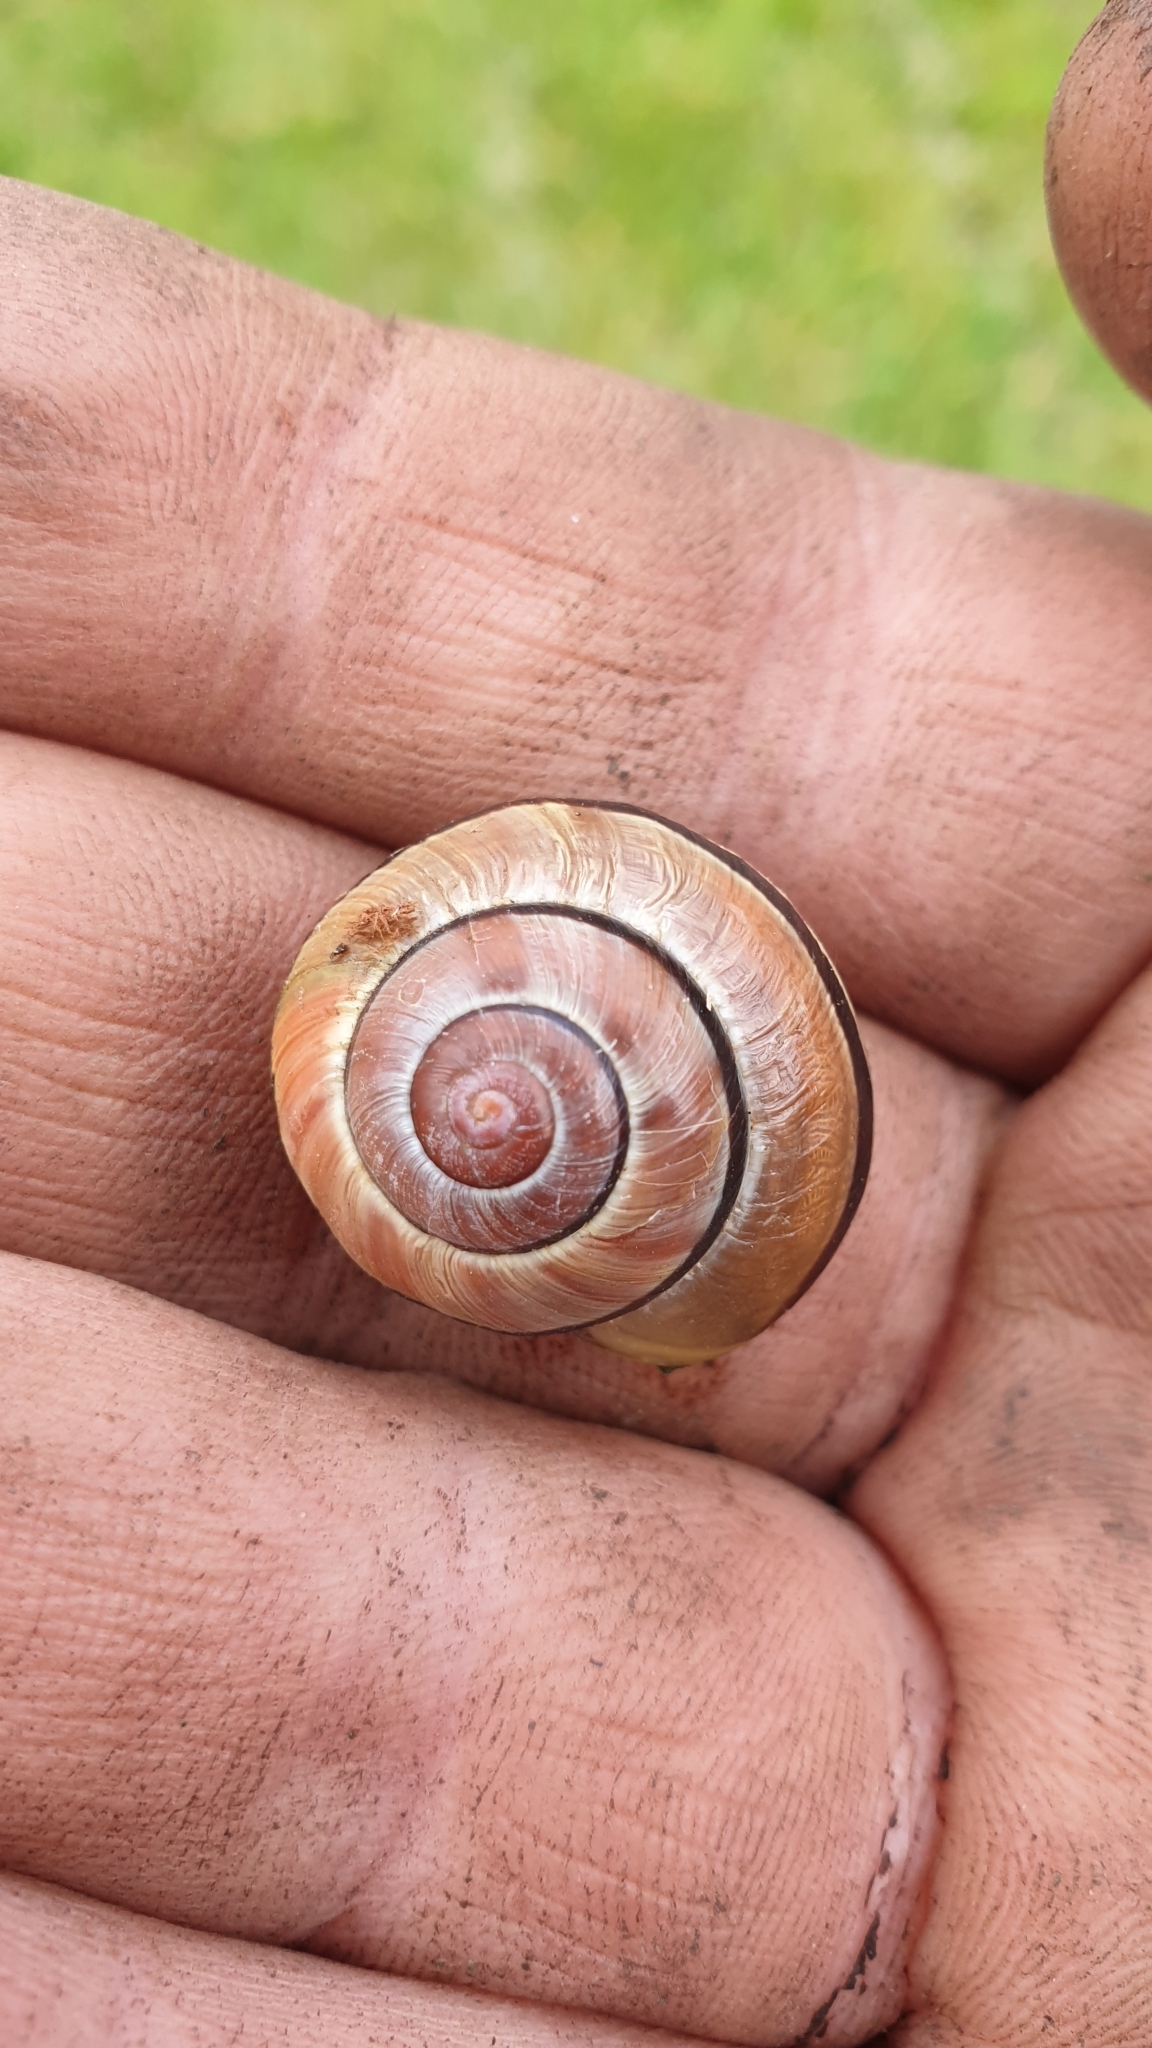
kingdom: Animalia
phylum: Mollusca
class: Gastropoda
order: Stylommatophora
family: Helicidae
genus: Cepaea
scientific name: Cepaea
